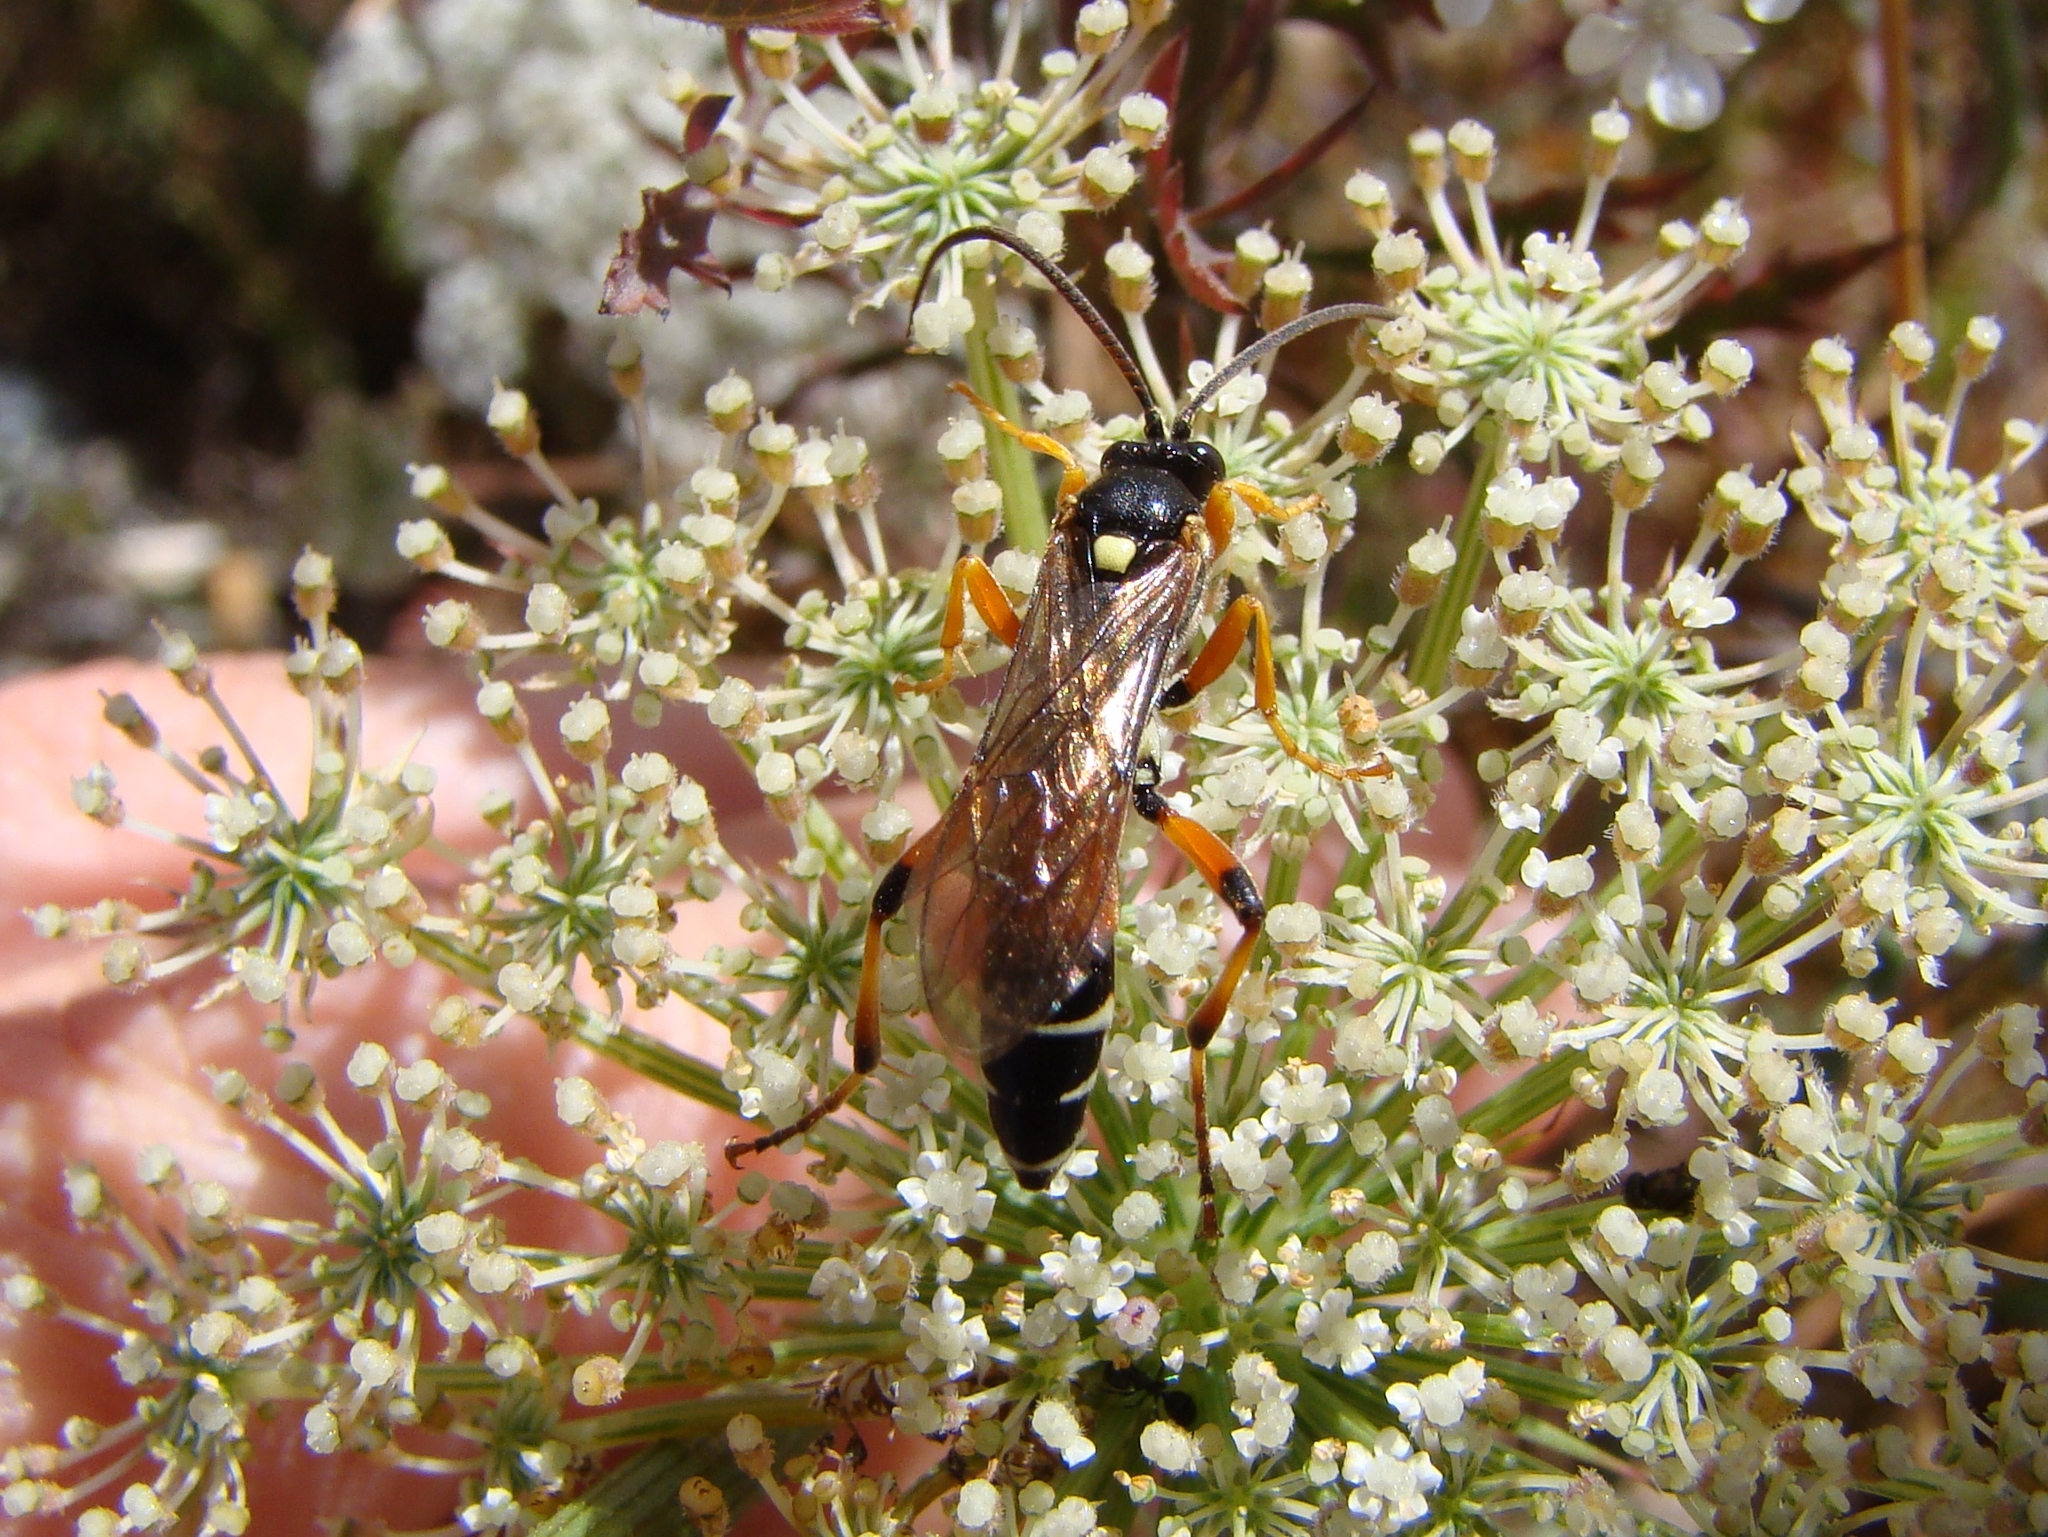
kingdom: Animalia
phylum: Arthropoda
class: Insecta
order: Hymenoptera
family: Ichneumonidae
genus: Ichneumon
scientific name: Ichneumon promissorius
